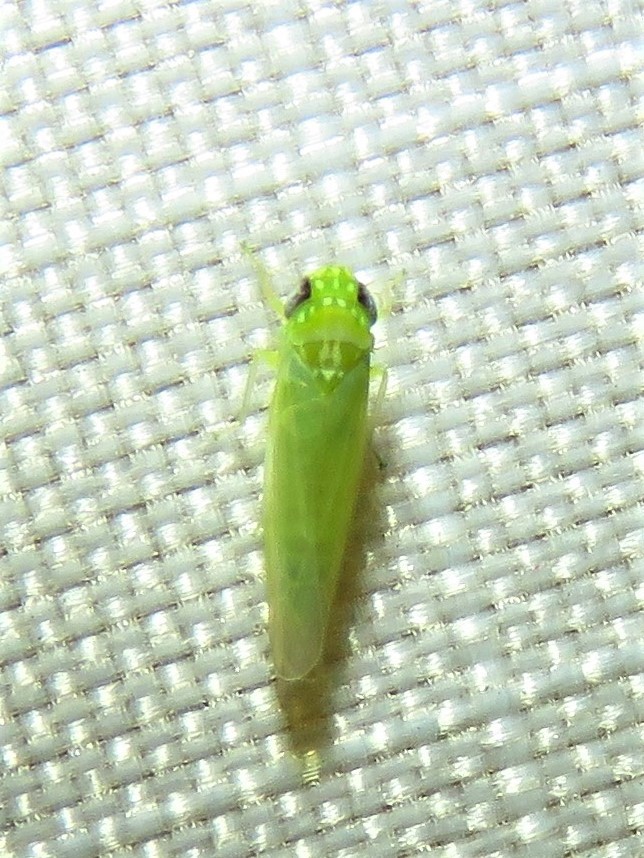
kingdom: Animalia
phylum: Arthropoda
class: Insecta
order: Hemiptera
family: Cicadellidae
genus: Empoasca
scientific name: Empoasca fabae
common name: Potato leafhopper
